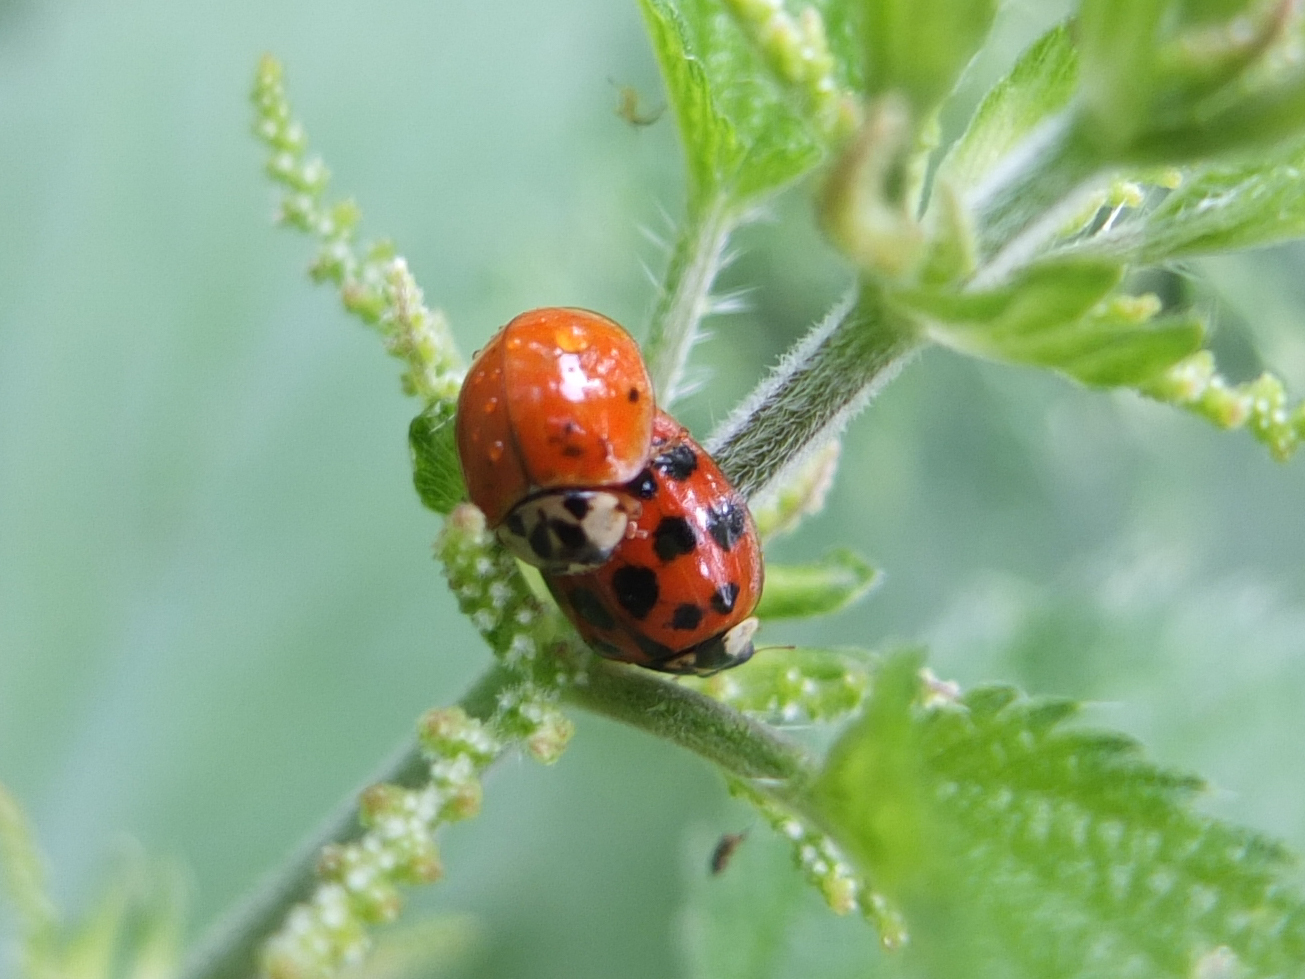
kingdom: Animalia
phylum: Arthropoda
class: Insecta
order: Coleoptera
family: Coccinellidae
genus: Harmonia
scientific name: Harmonia axyridis
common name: Harlequin ladybird
